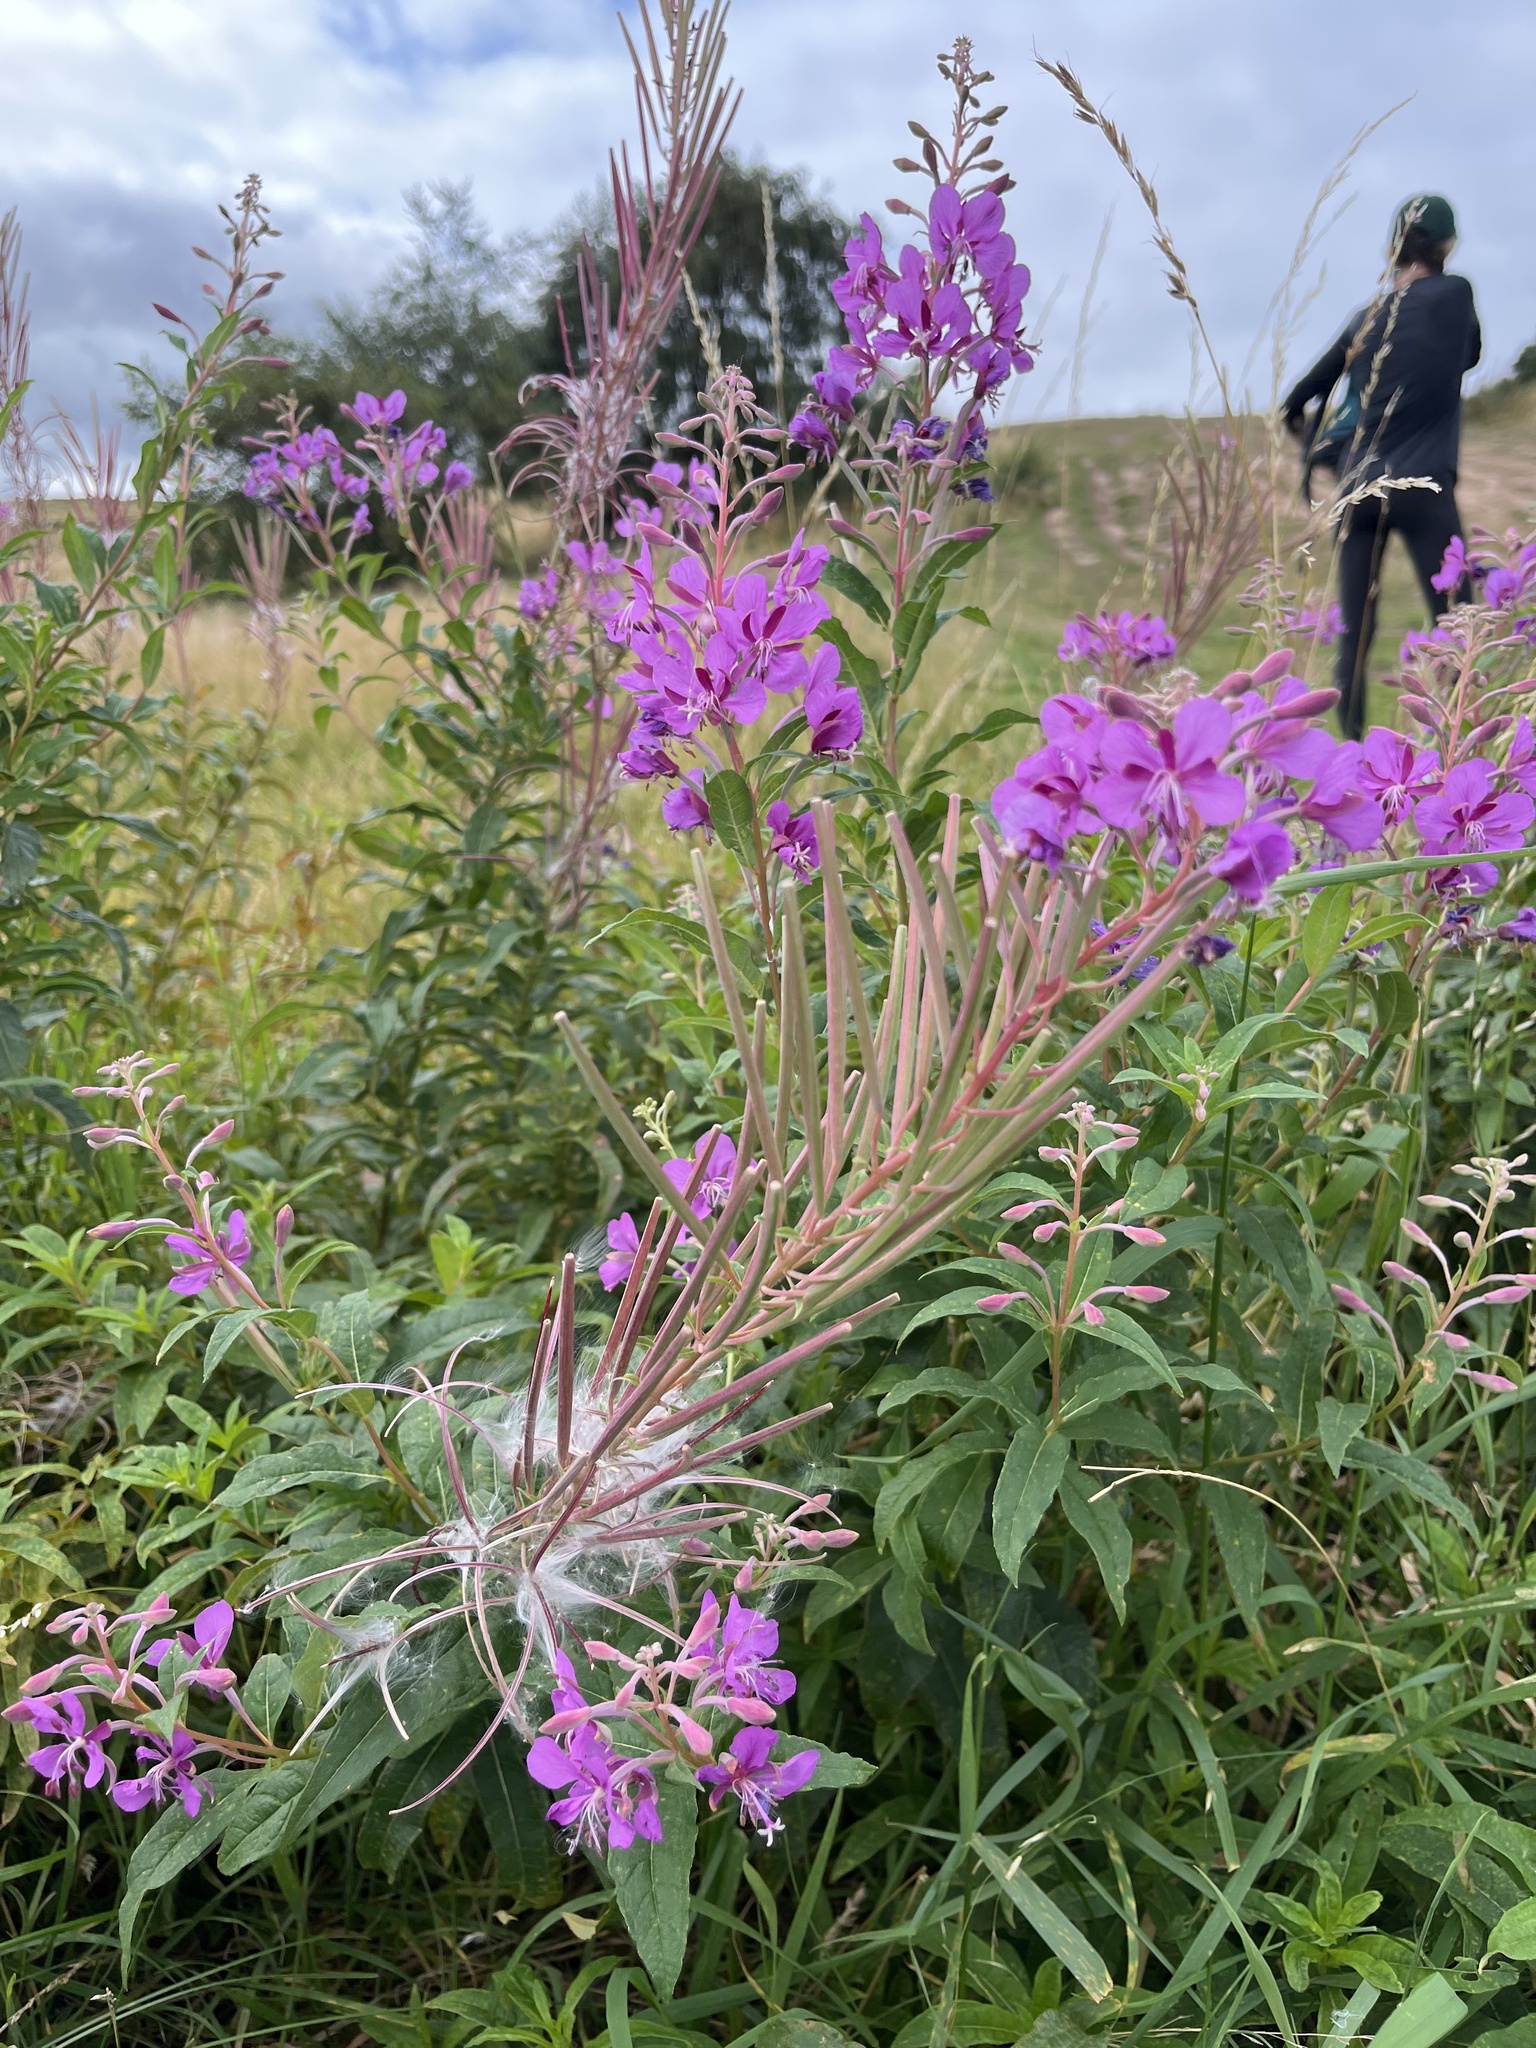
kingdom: Plantae
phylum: Tracheophyta
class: Magnoliopsida
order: Myrtales
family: Onagraceae
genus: Chamaenerion
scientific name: Chamaenerion angustifolium
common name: Fireweed
